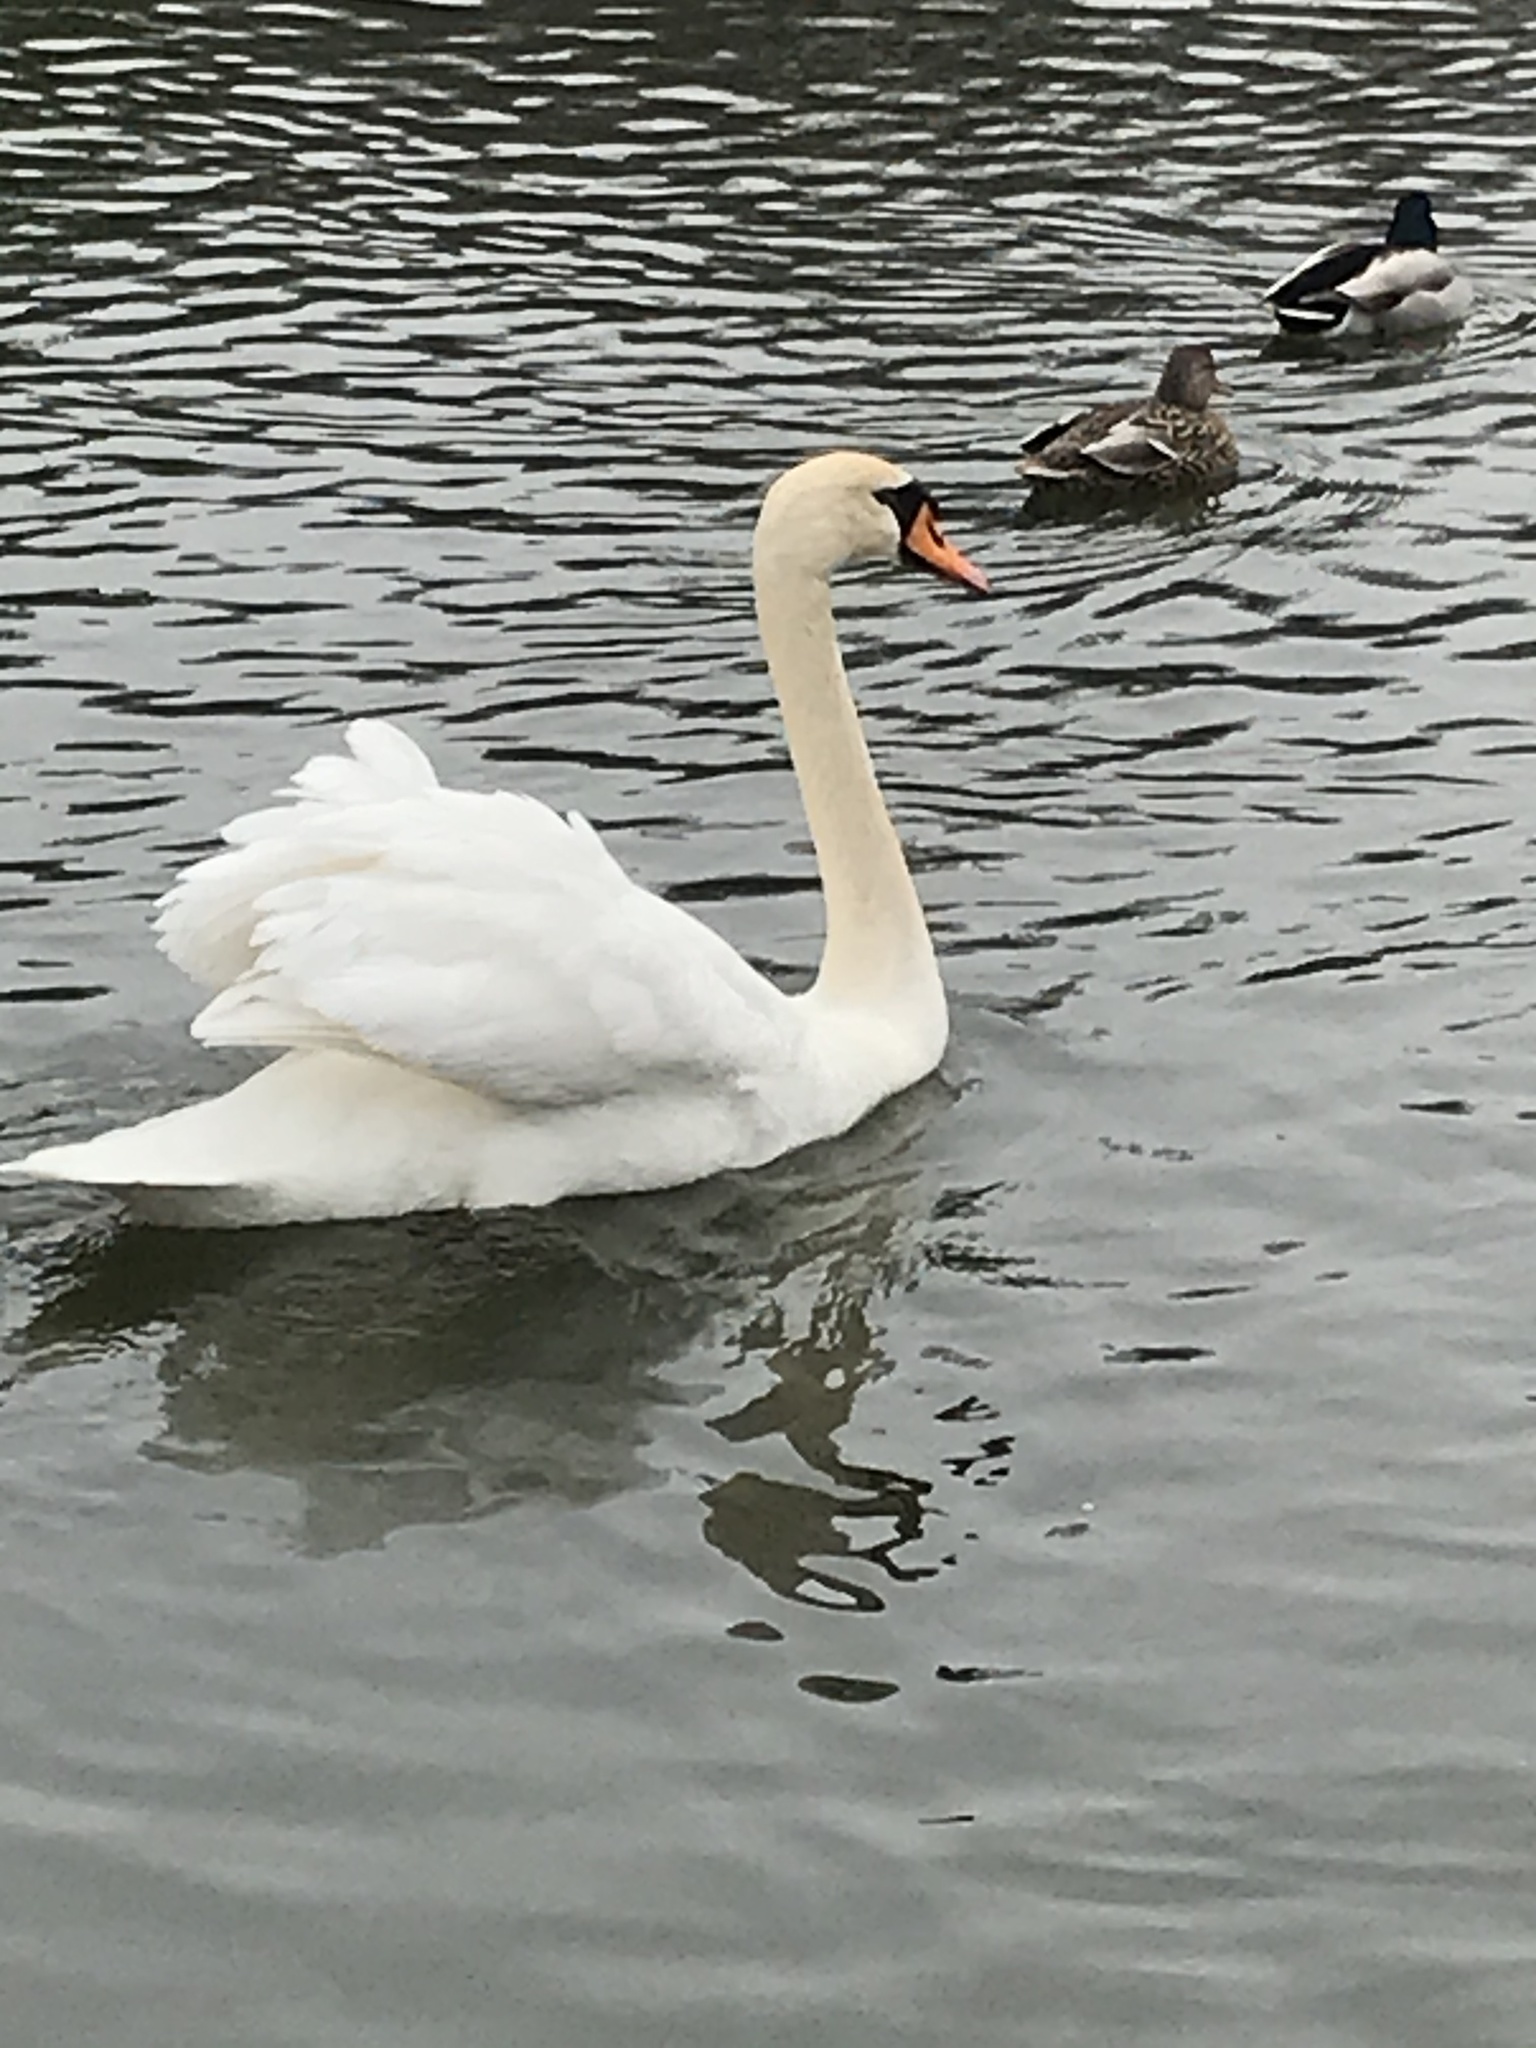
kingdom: Animalia
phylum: Chordata
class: Aves
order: Anseriformes
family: Anatidae
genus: Cygnus
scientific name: Cygnus olor
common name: Mute swan
